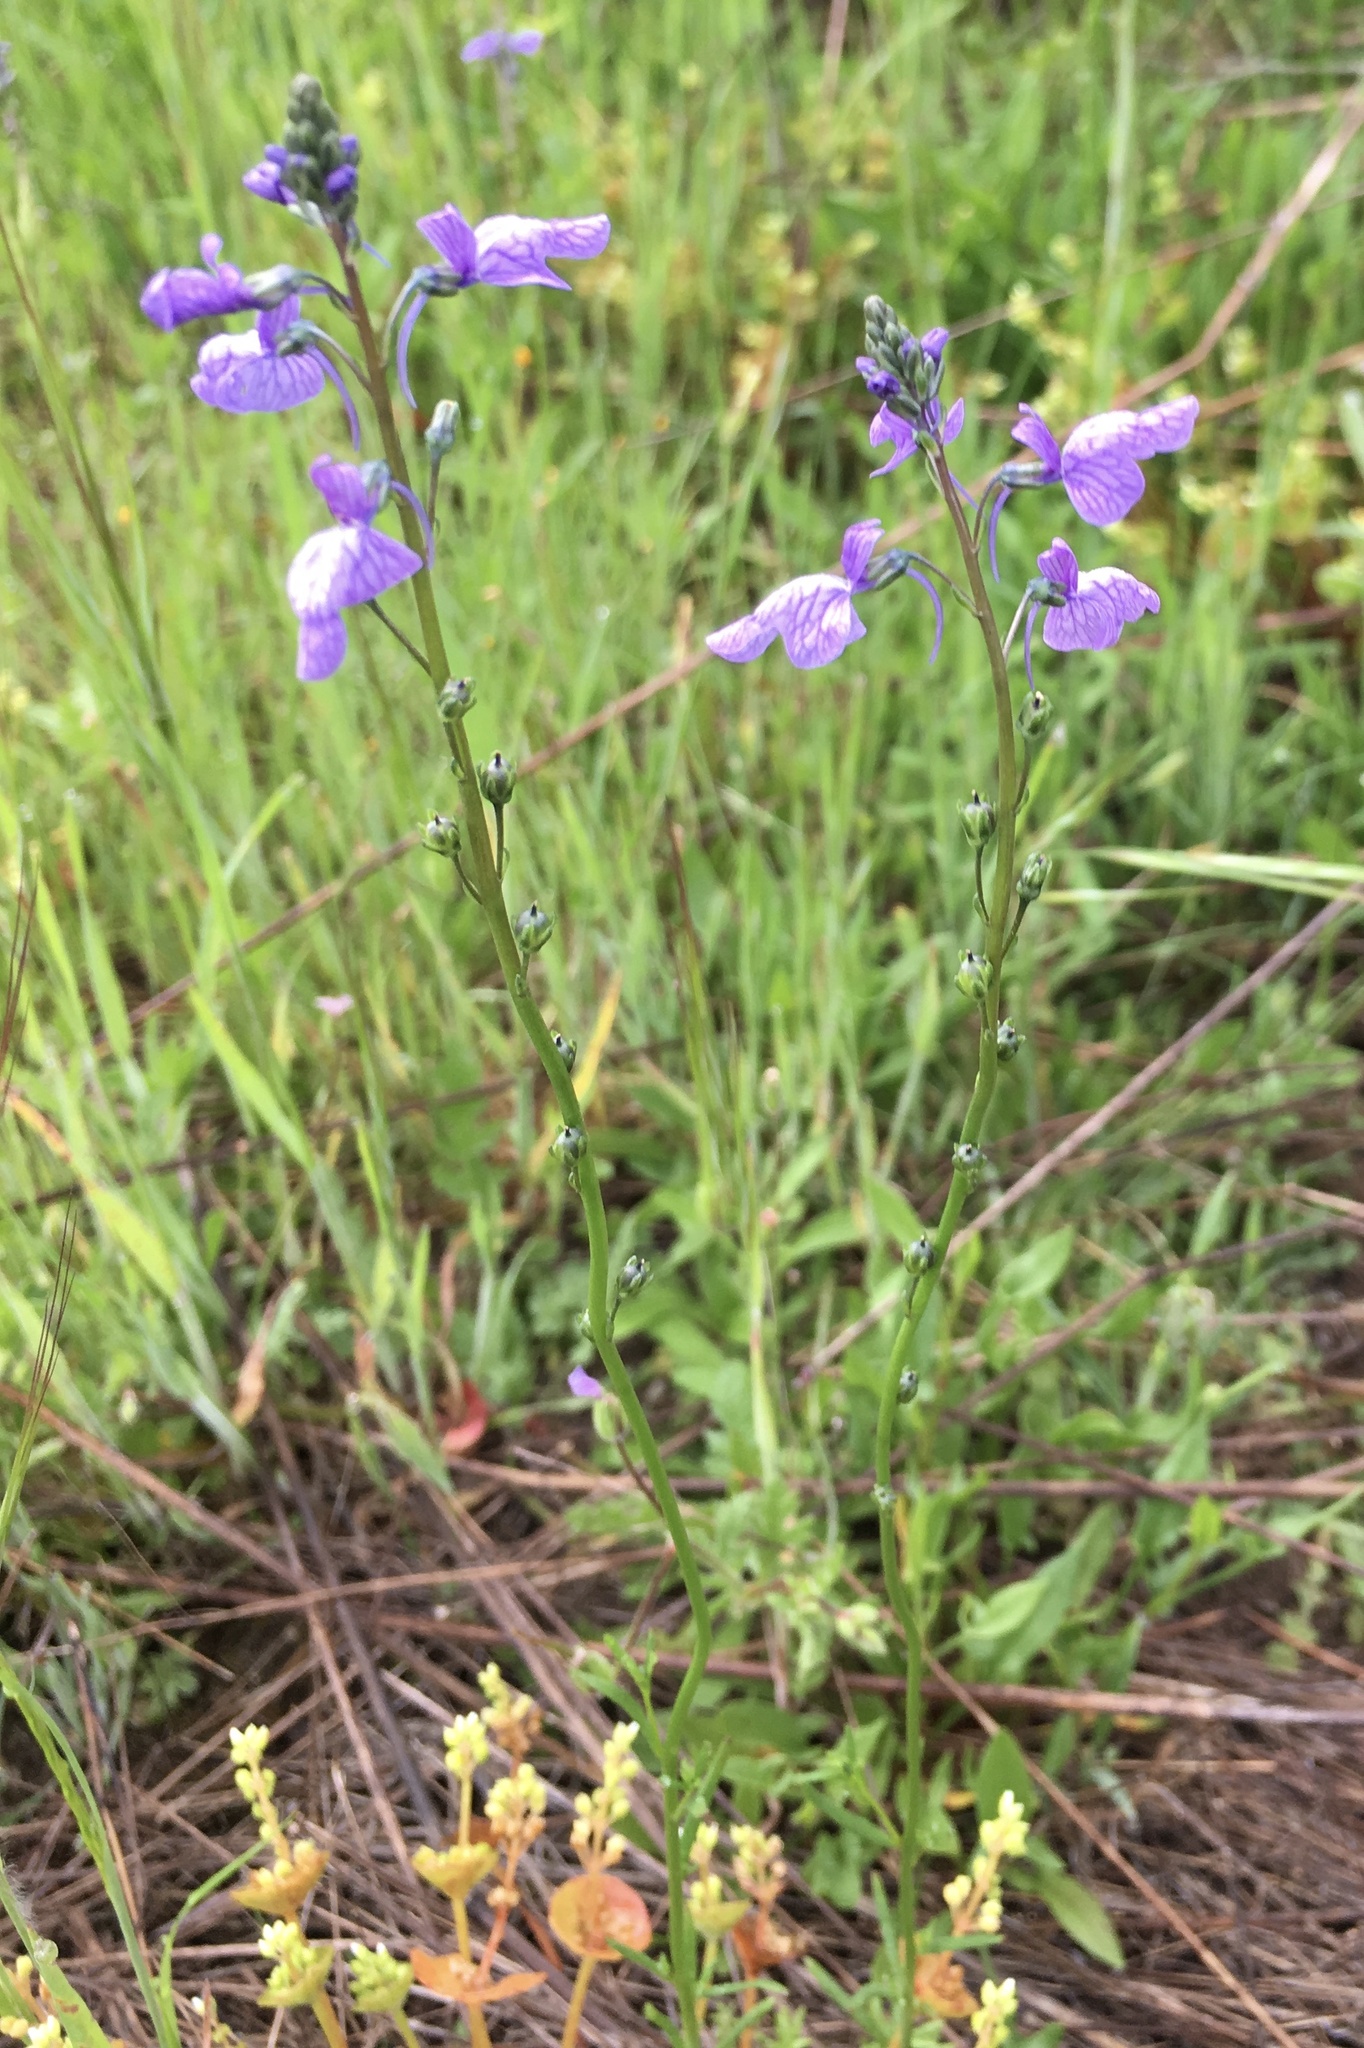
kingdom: Plantae
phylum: Tracheophyta
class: Magnoliopsida
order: Lamiales
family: Plantaginaceae
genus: Nuttallanthus
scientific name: Nuttallanthus texanus
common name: Texas toadflax
